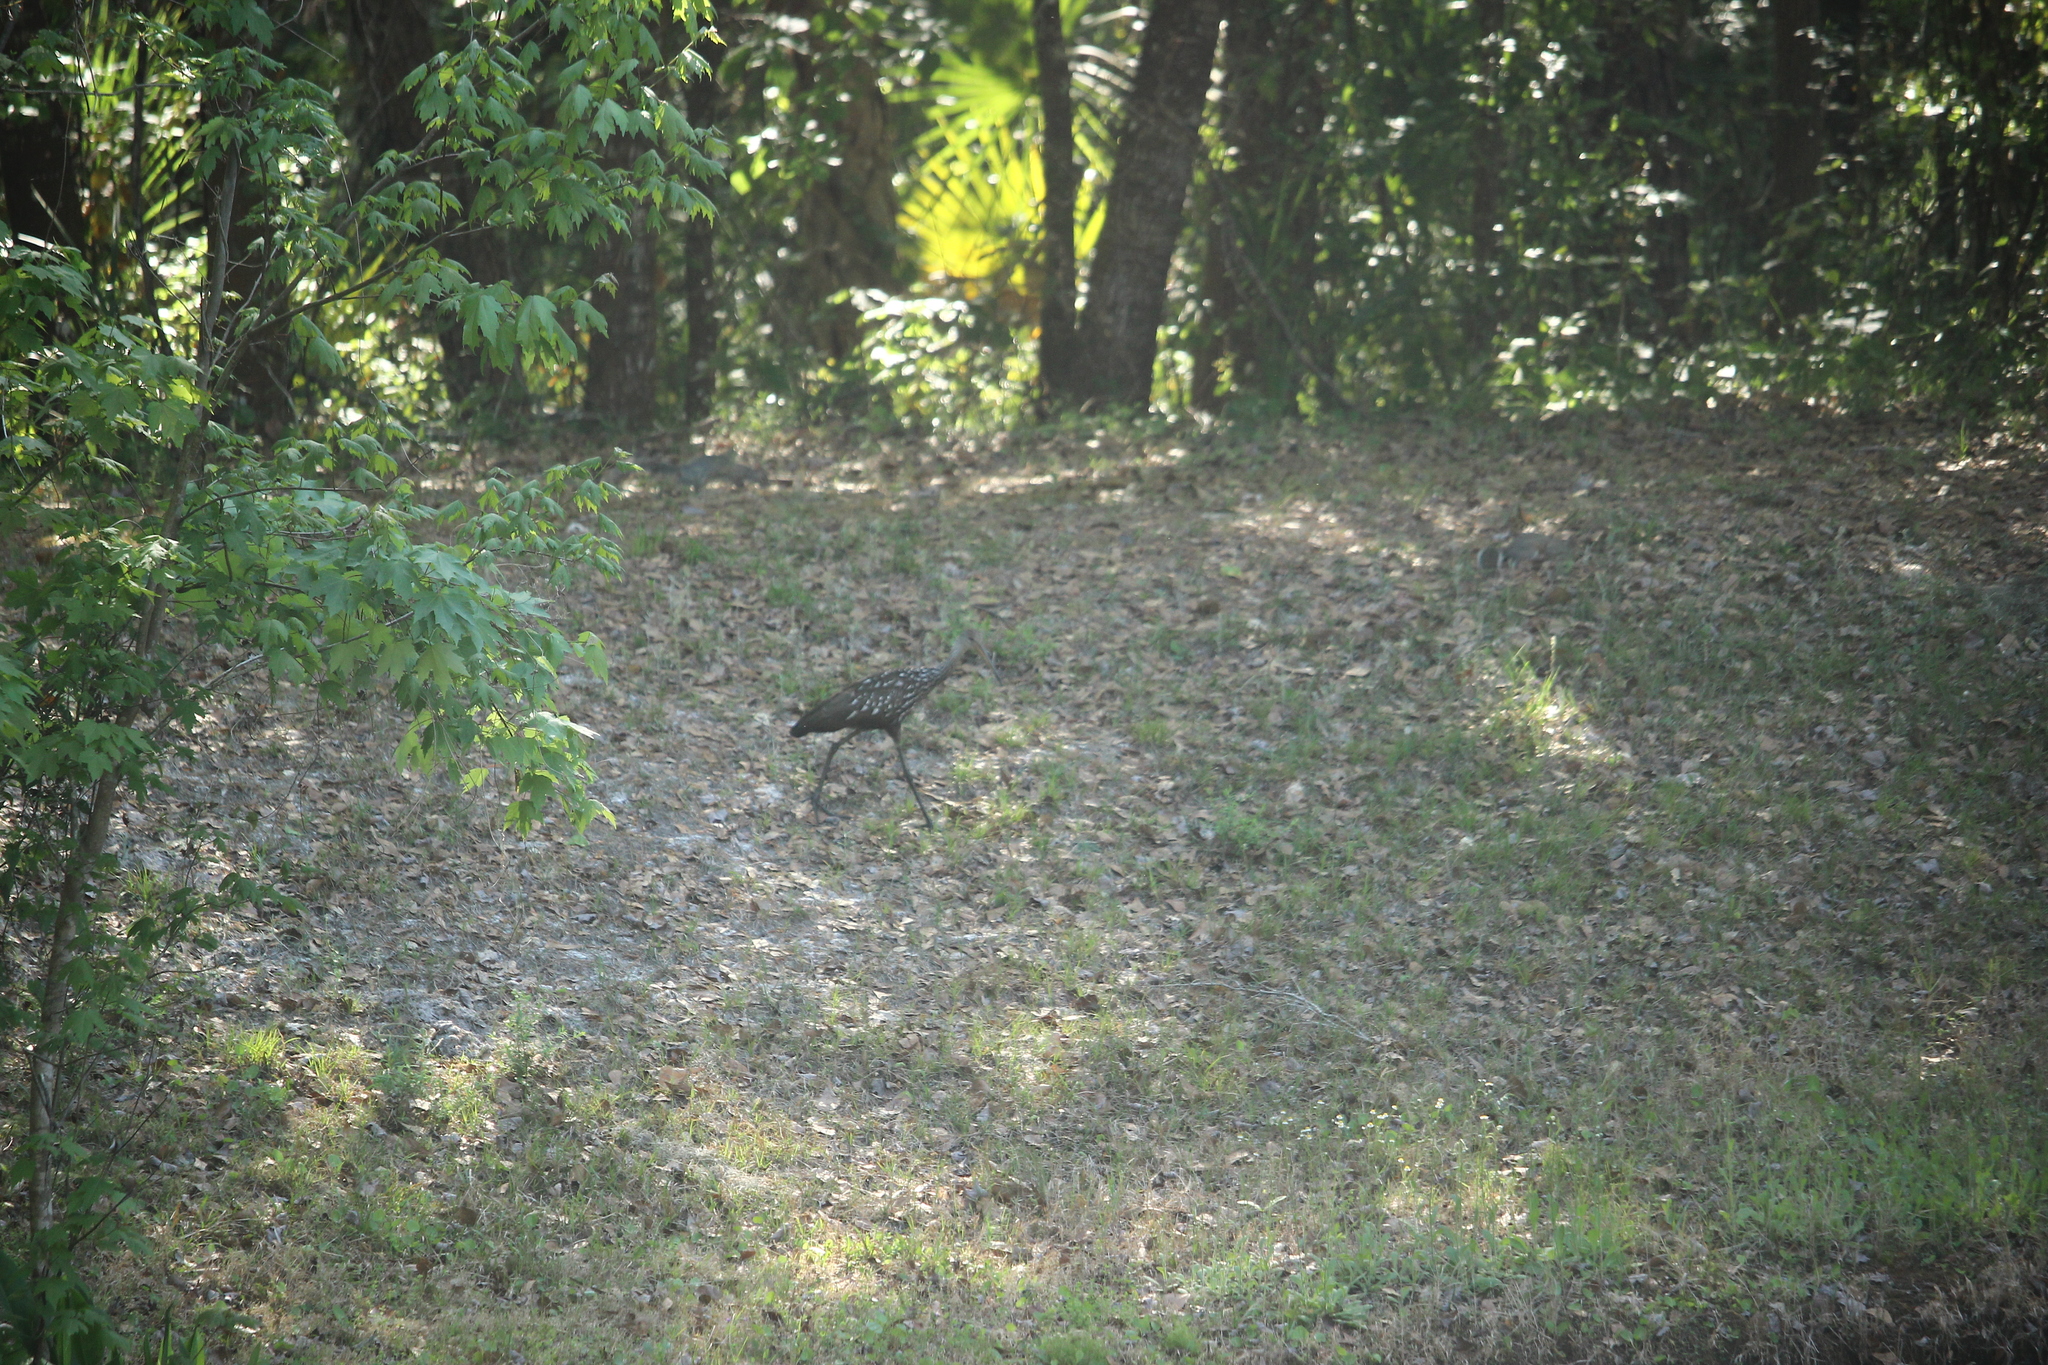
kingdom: Animalia
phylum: Chordata
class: Aves
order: Gruiformes
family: Aramidae
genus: Aramus
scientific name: Aramus guarauna
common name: Limpkin
